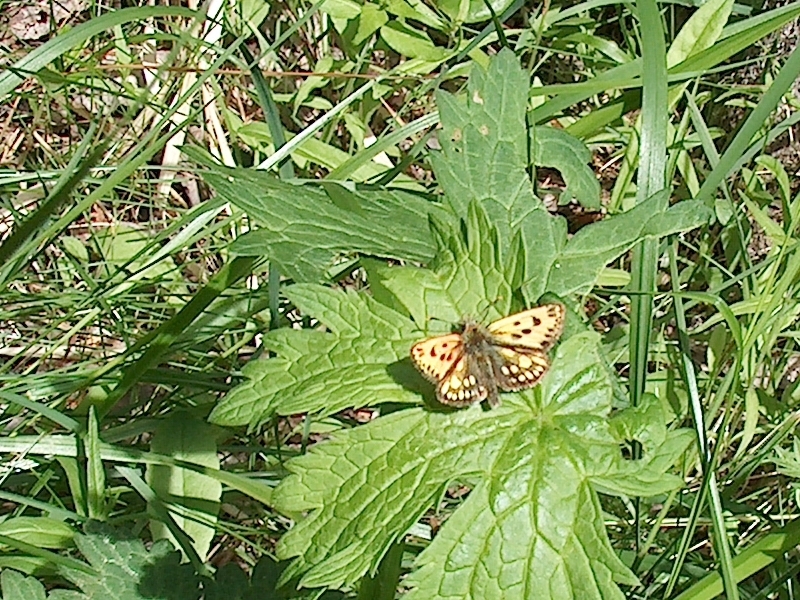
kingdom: Animalia
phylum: Arthropoda
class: Insecta
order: Lepidoptera
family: Hesperiidae
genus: Carterocephalus
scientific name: Carterocephalus silvicola
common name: Northern chequered skipper
